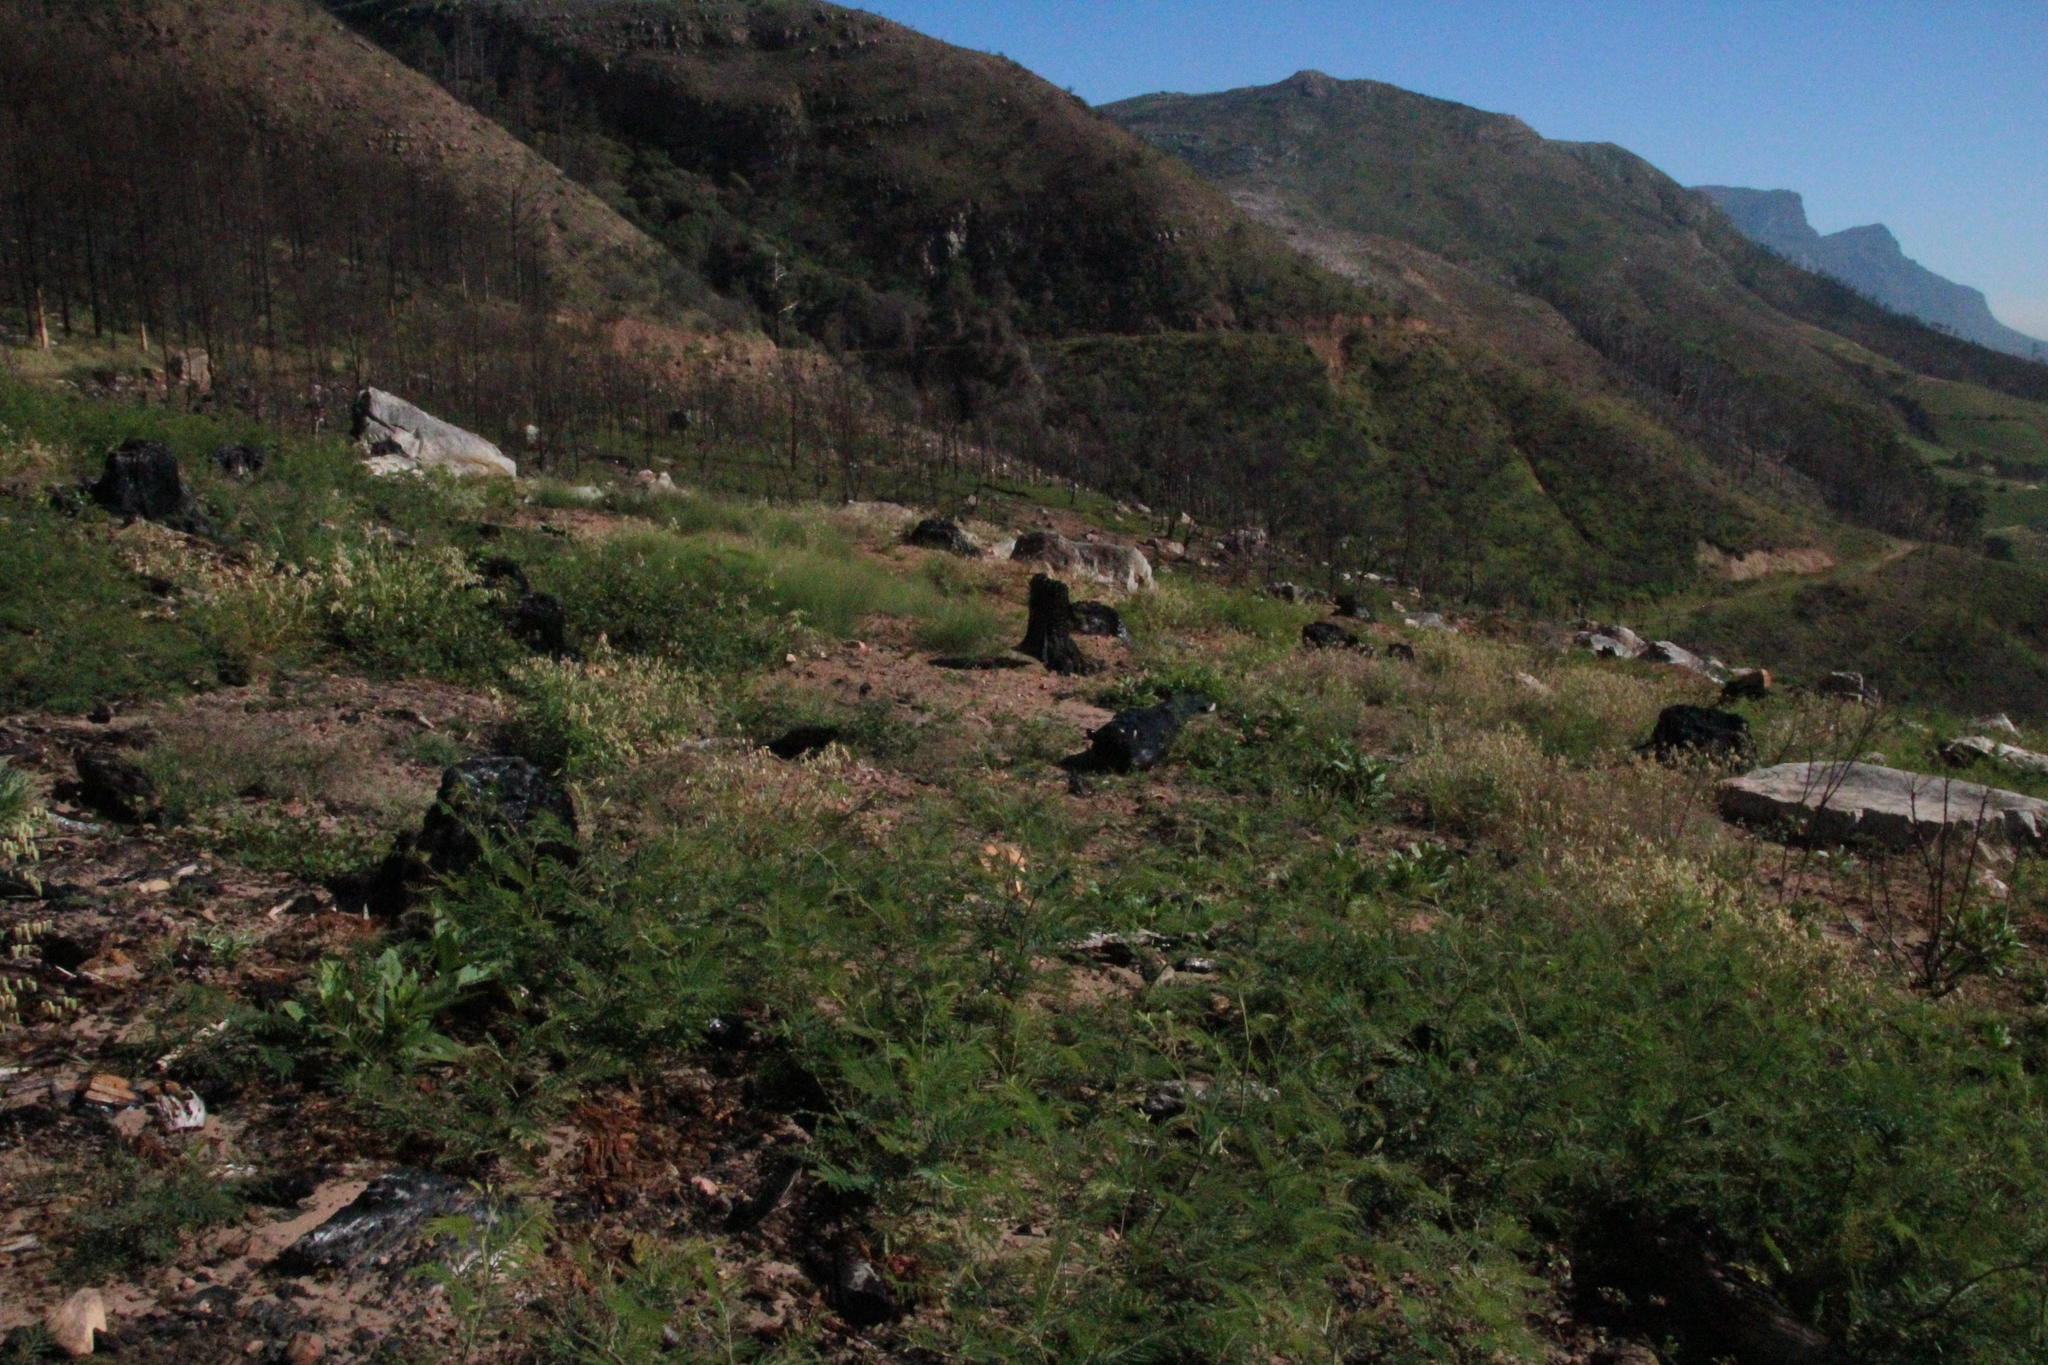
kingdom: Plantae
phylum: Tracheophyta
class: Magnoliopsida
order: Fabales
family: Fabaceae
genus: Acacia
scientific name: Acacia mearnsii
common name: Black wattle
